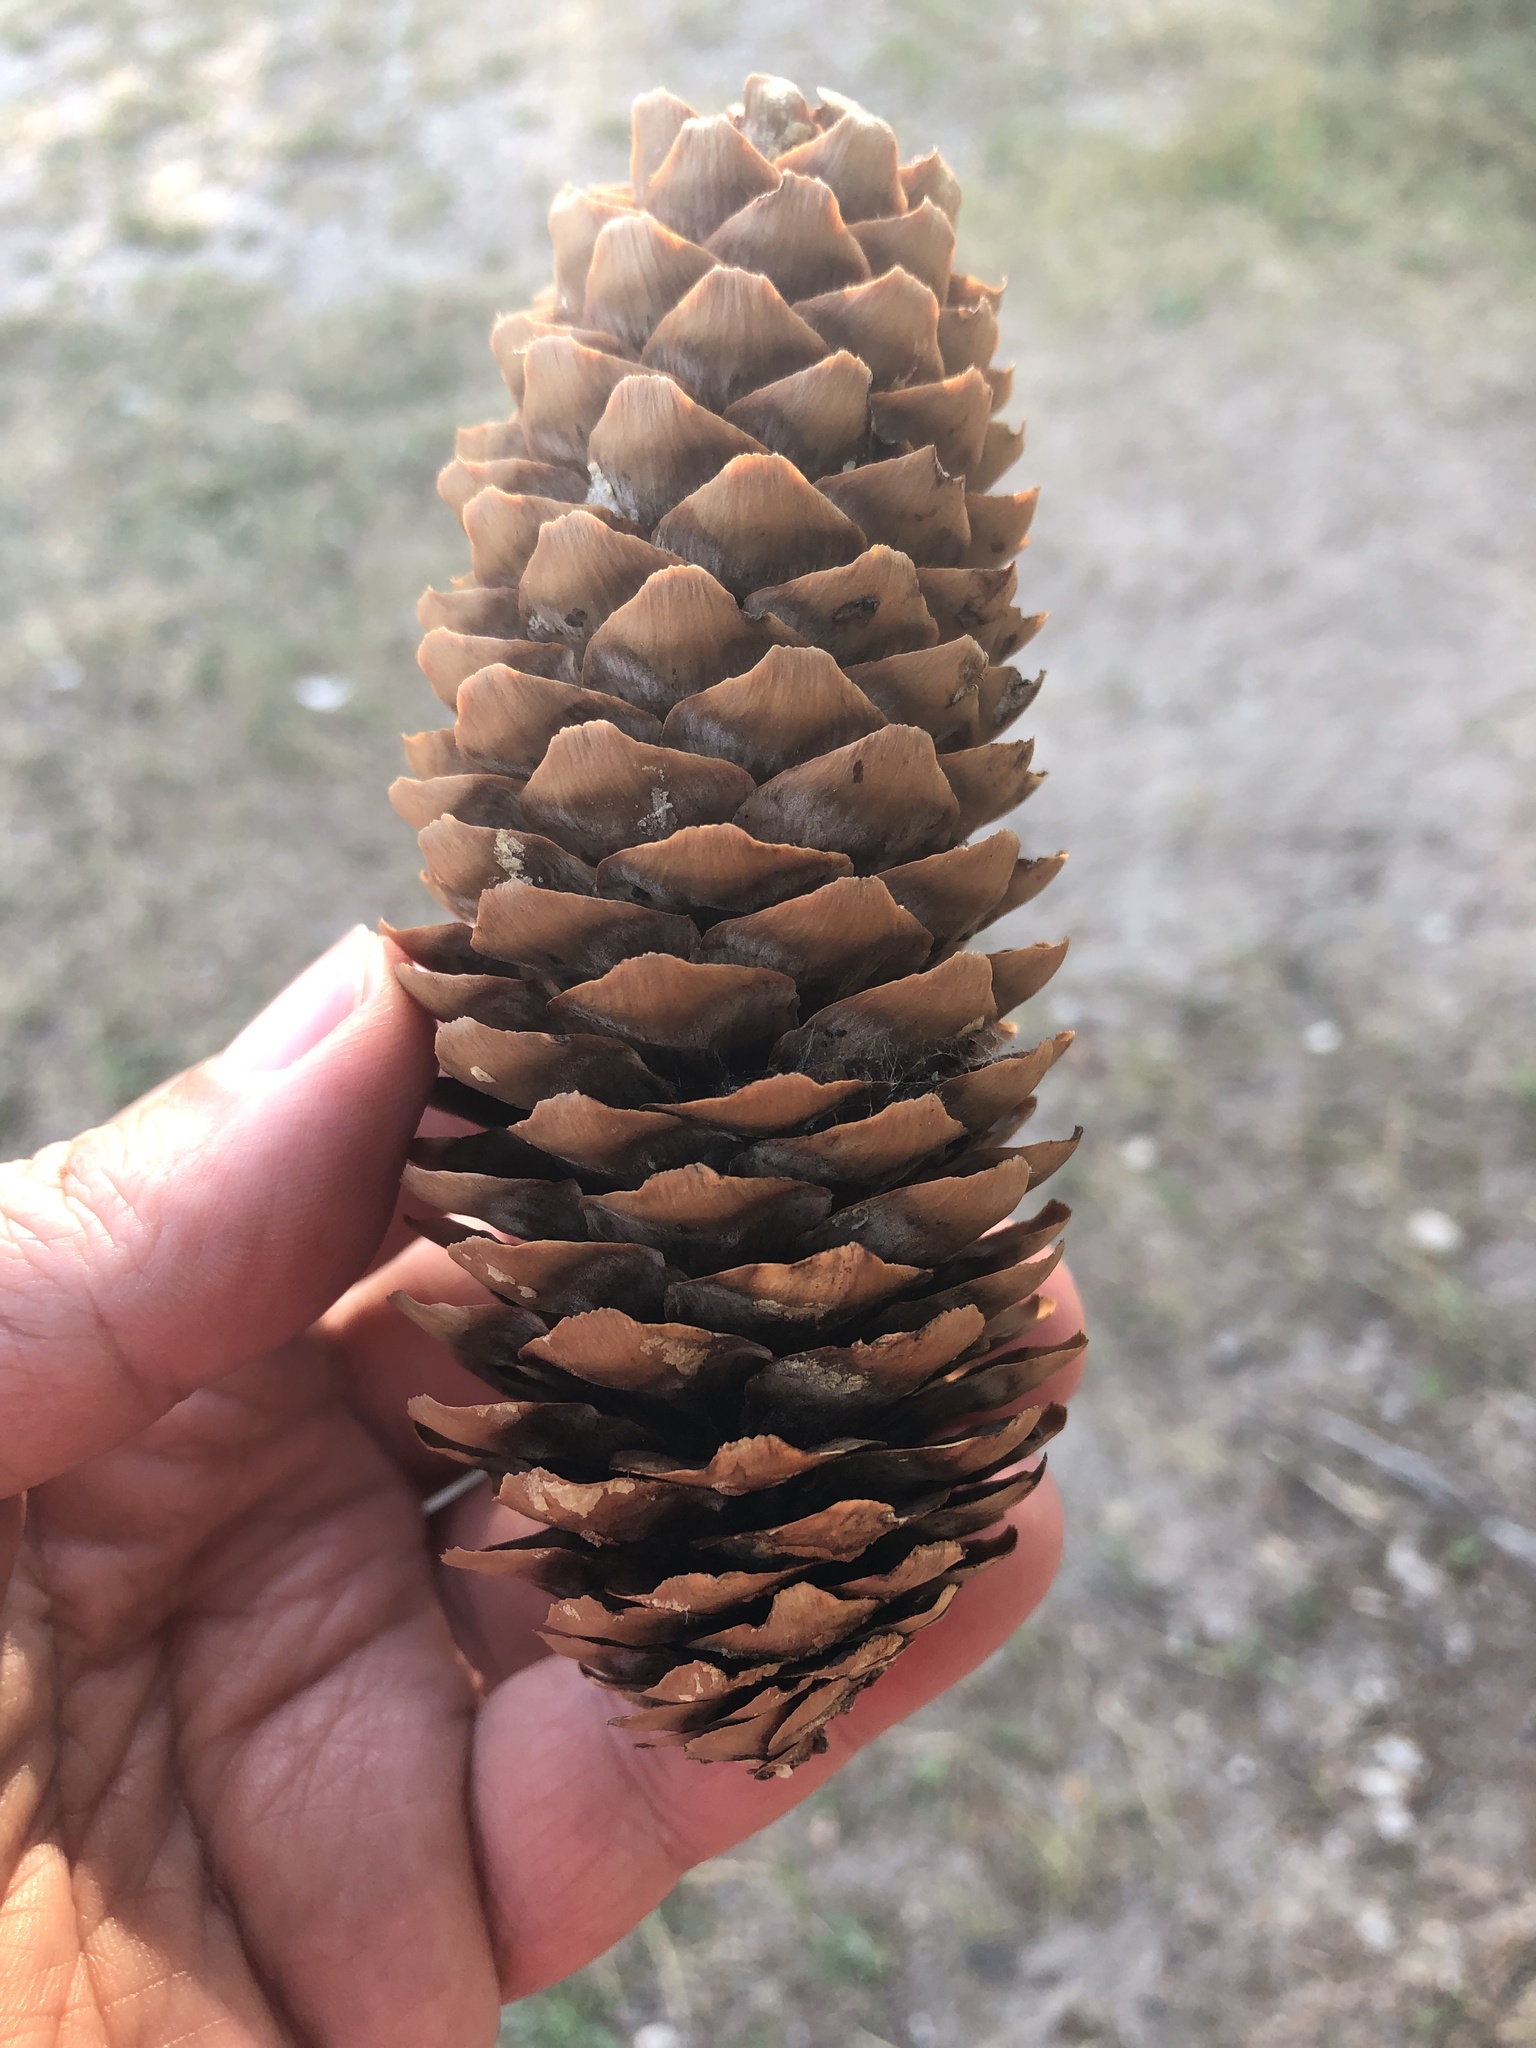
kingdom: Plantae
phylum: Tracheophyta
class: Pinopsida
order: Pinales
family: Pinaceae
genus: Picea
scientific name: Picea abies
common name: Norway spruce
